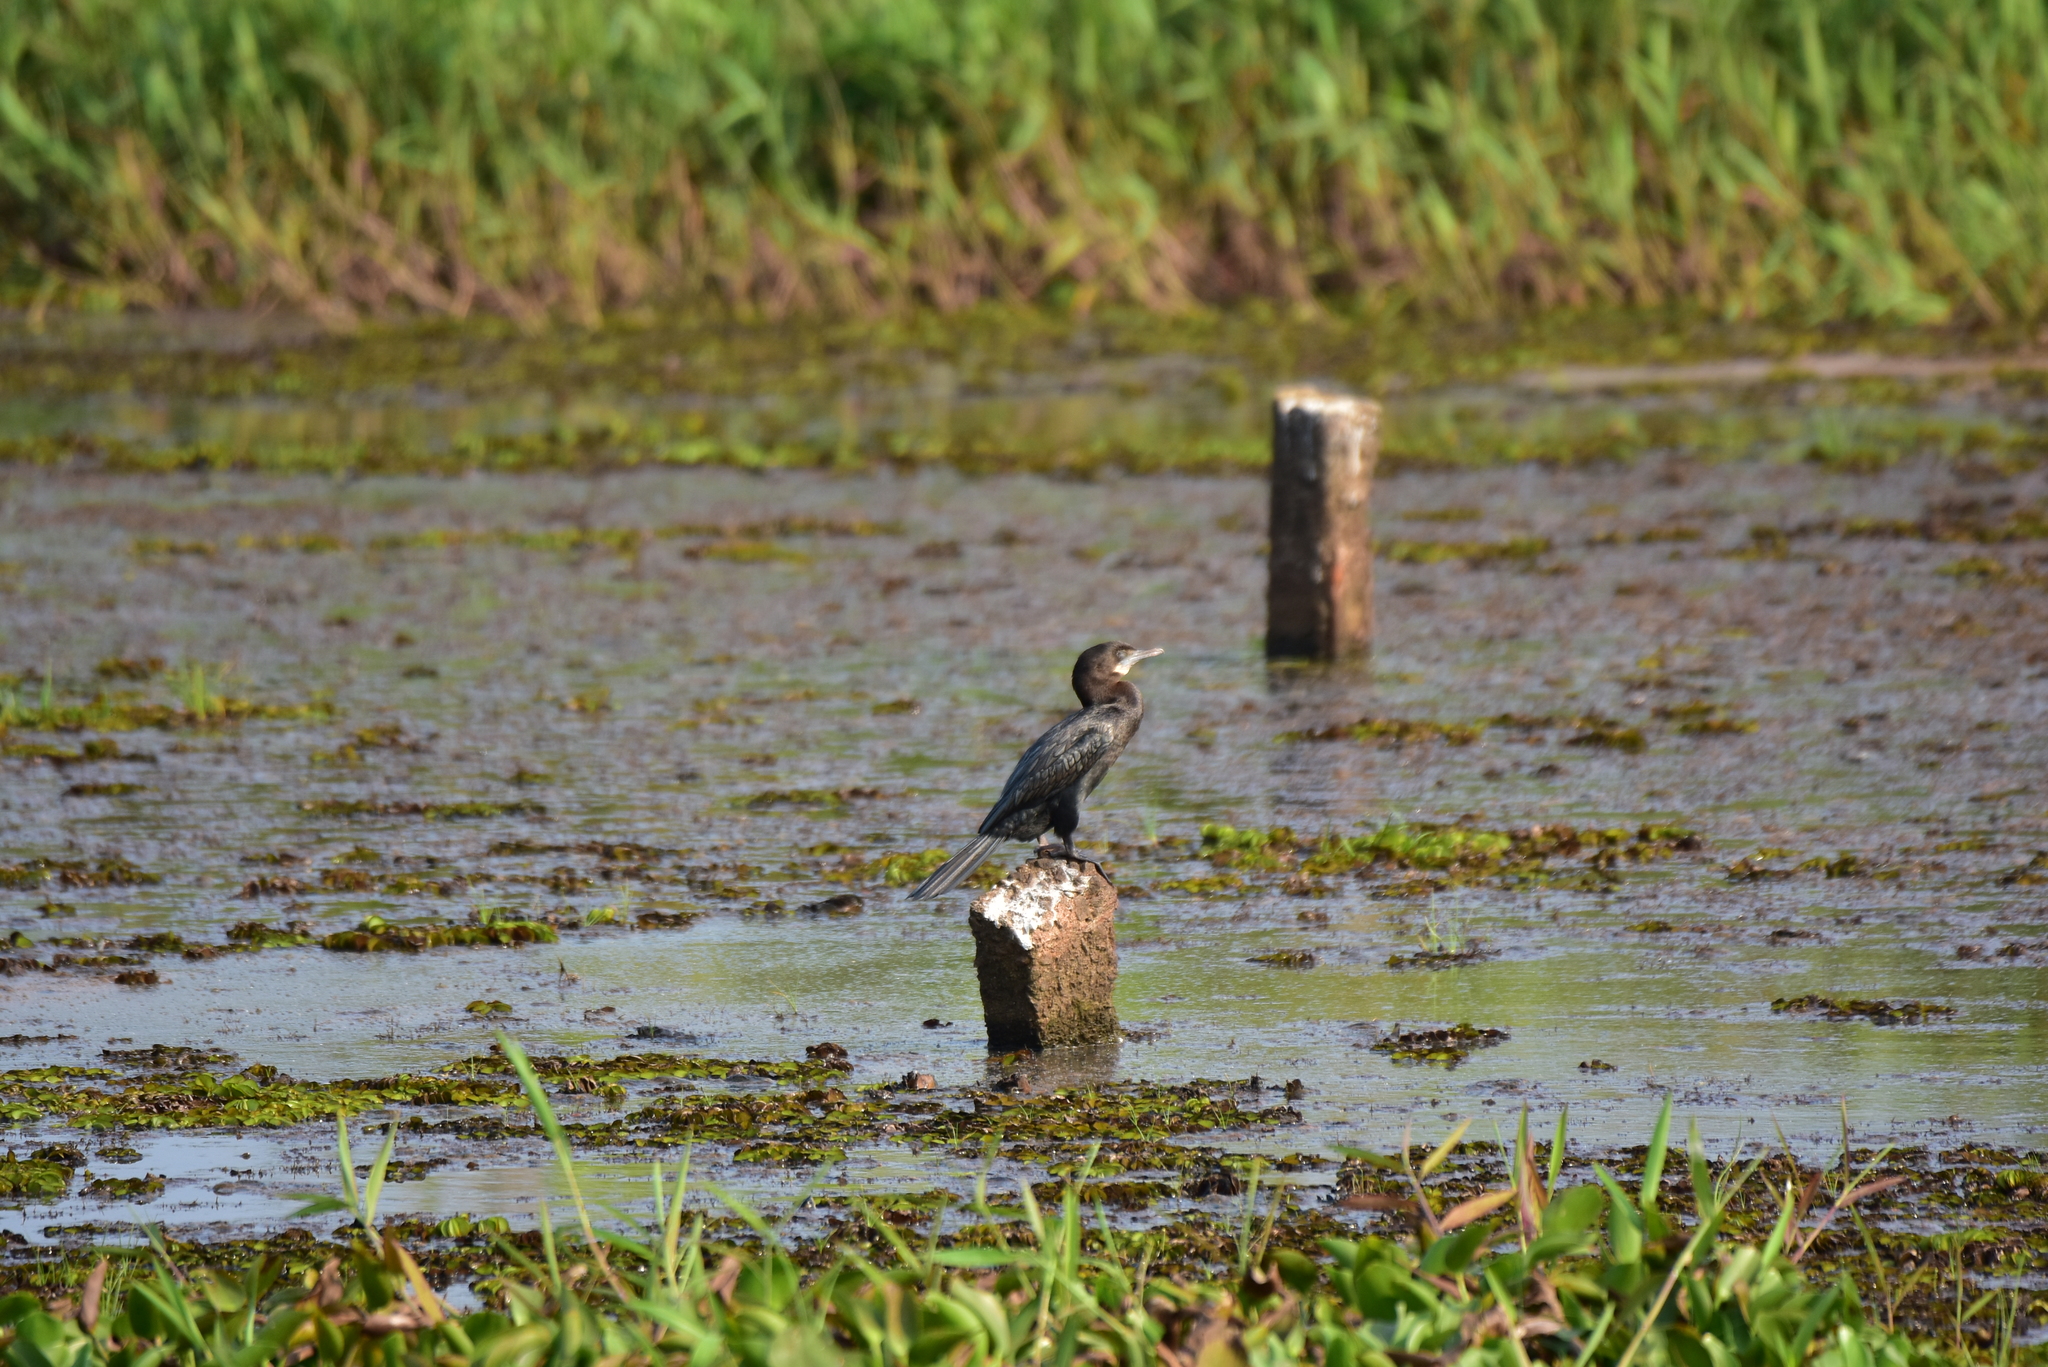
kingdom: Animalia
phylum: Chordata
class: Aves
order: Suliformes
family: Phalacrocoracidae
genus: Microcarbo
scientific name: Microcarbo niger
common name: Little cormorant
